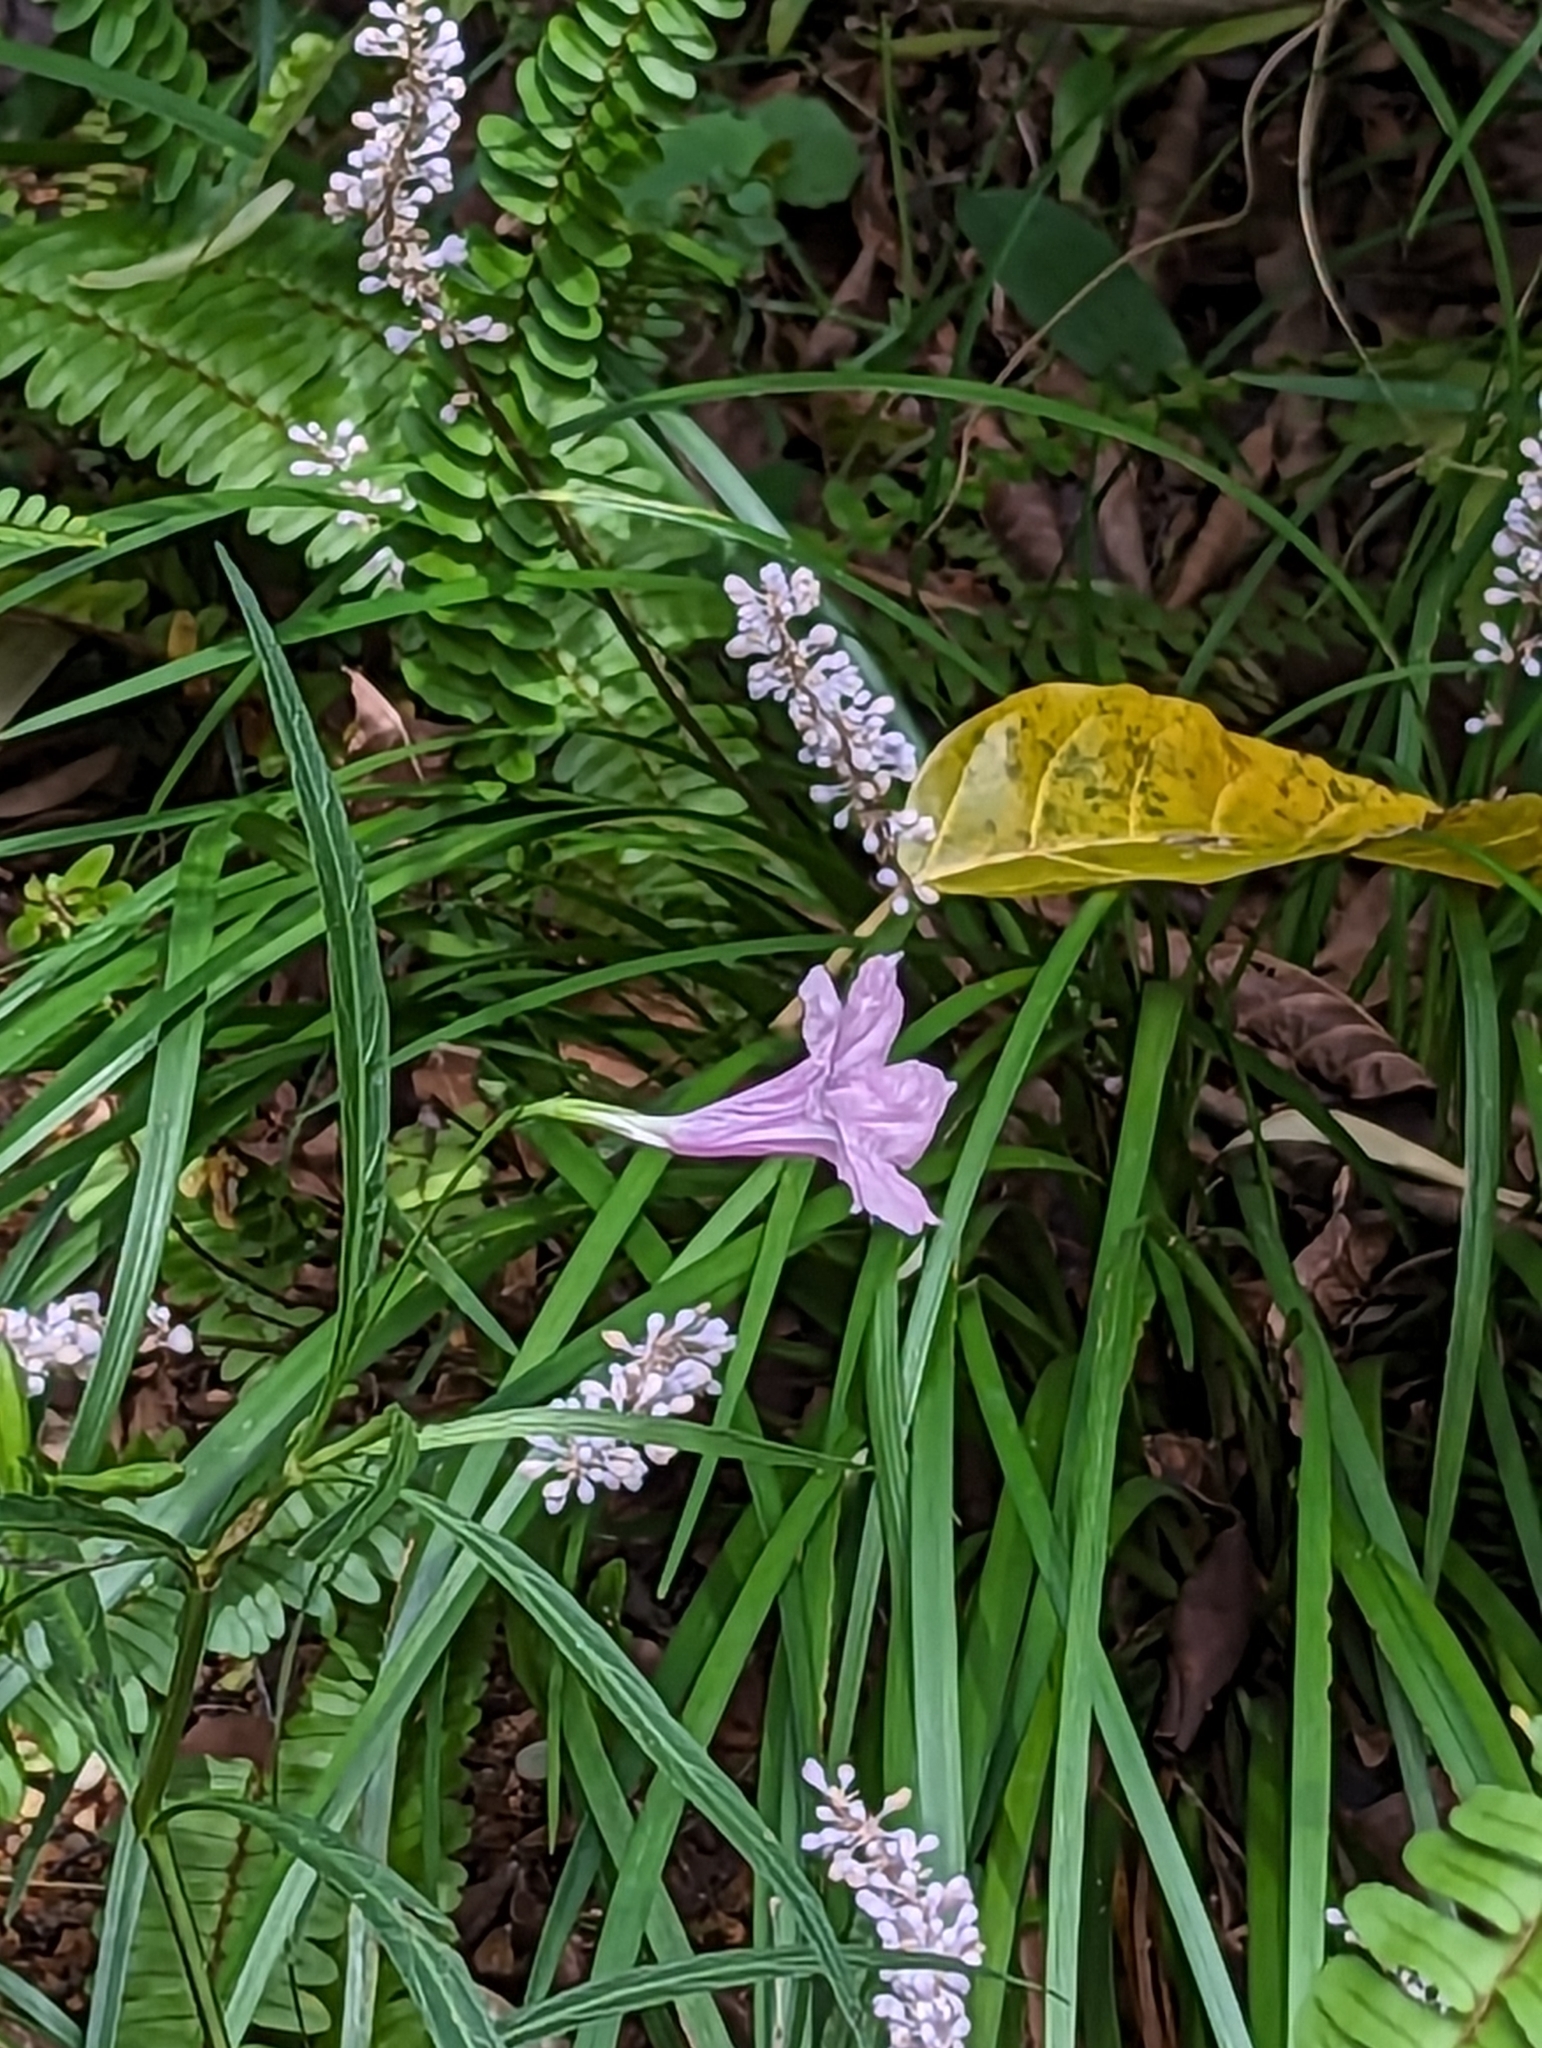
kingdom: Plantae
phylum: Tracheophyta
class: Magnoliopsida
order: Lamiales
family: Acanthaceae
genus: Ruellia
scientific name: Ruellia simplex
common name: Softseed wild petunia
